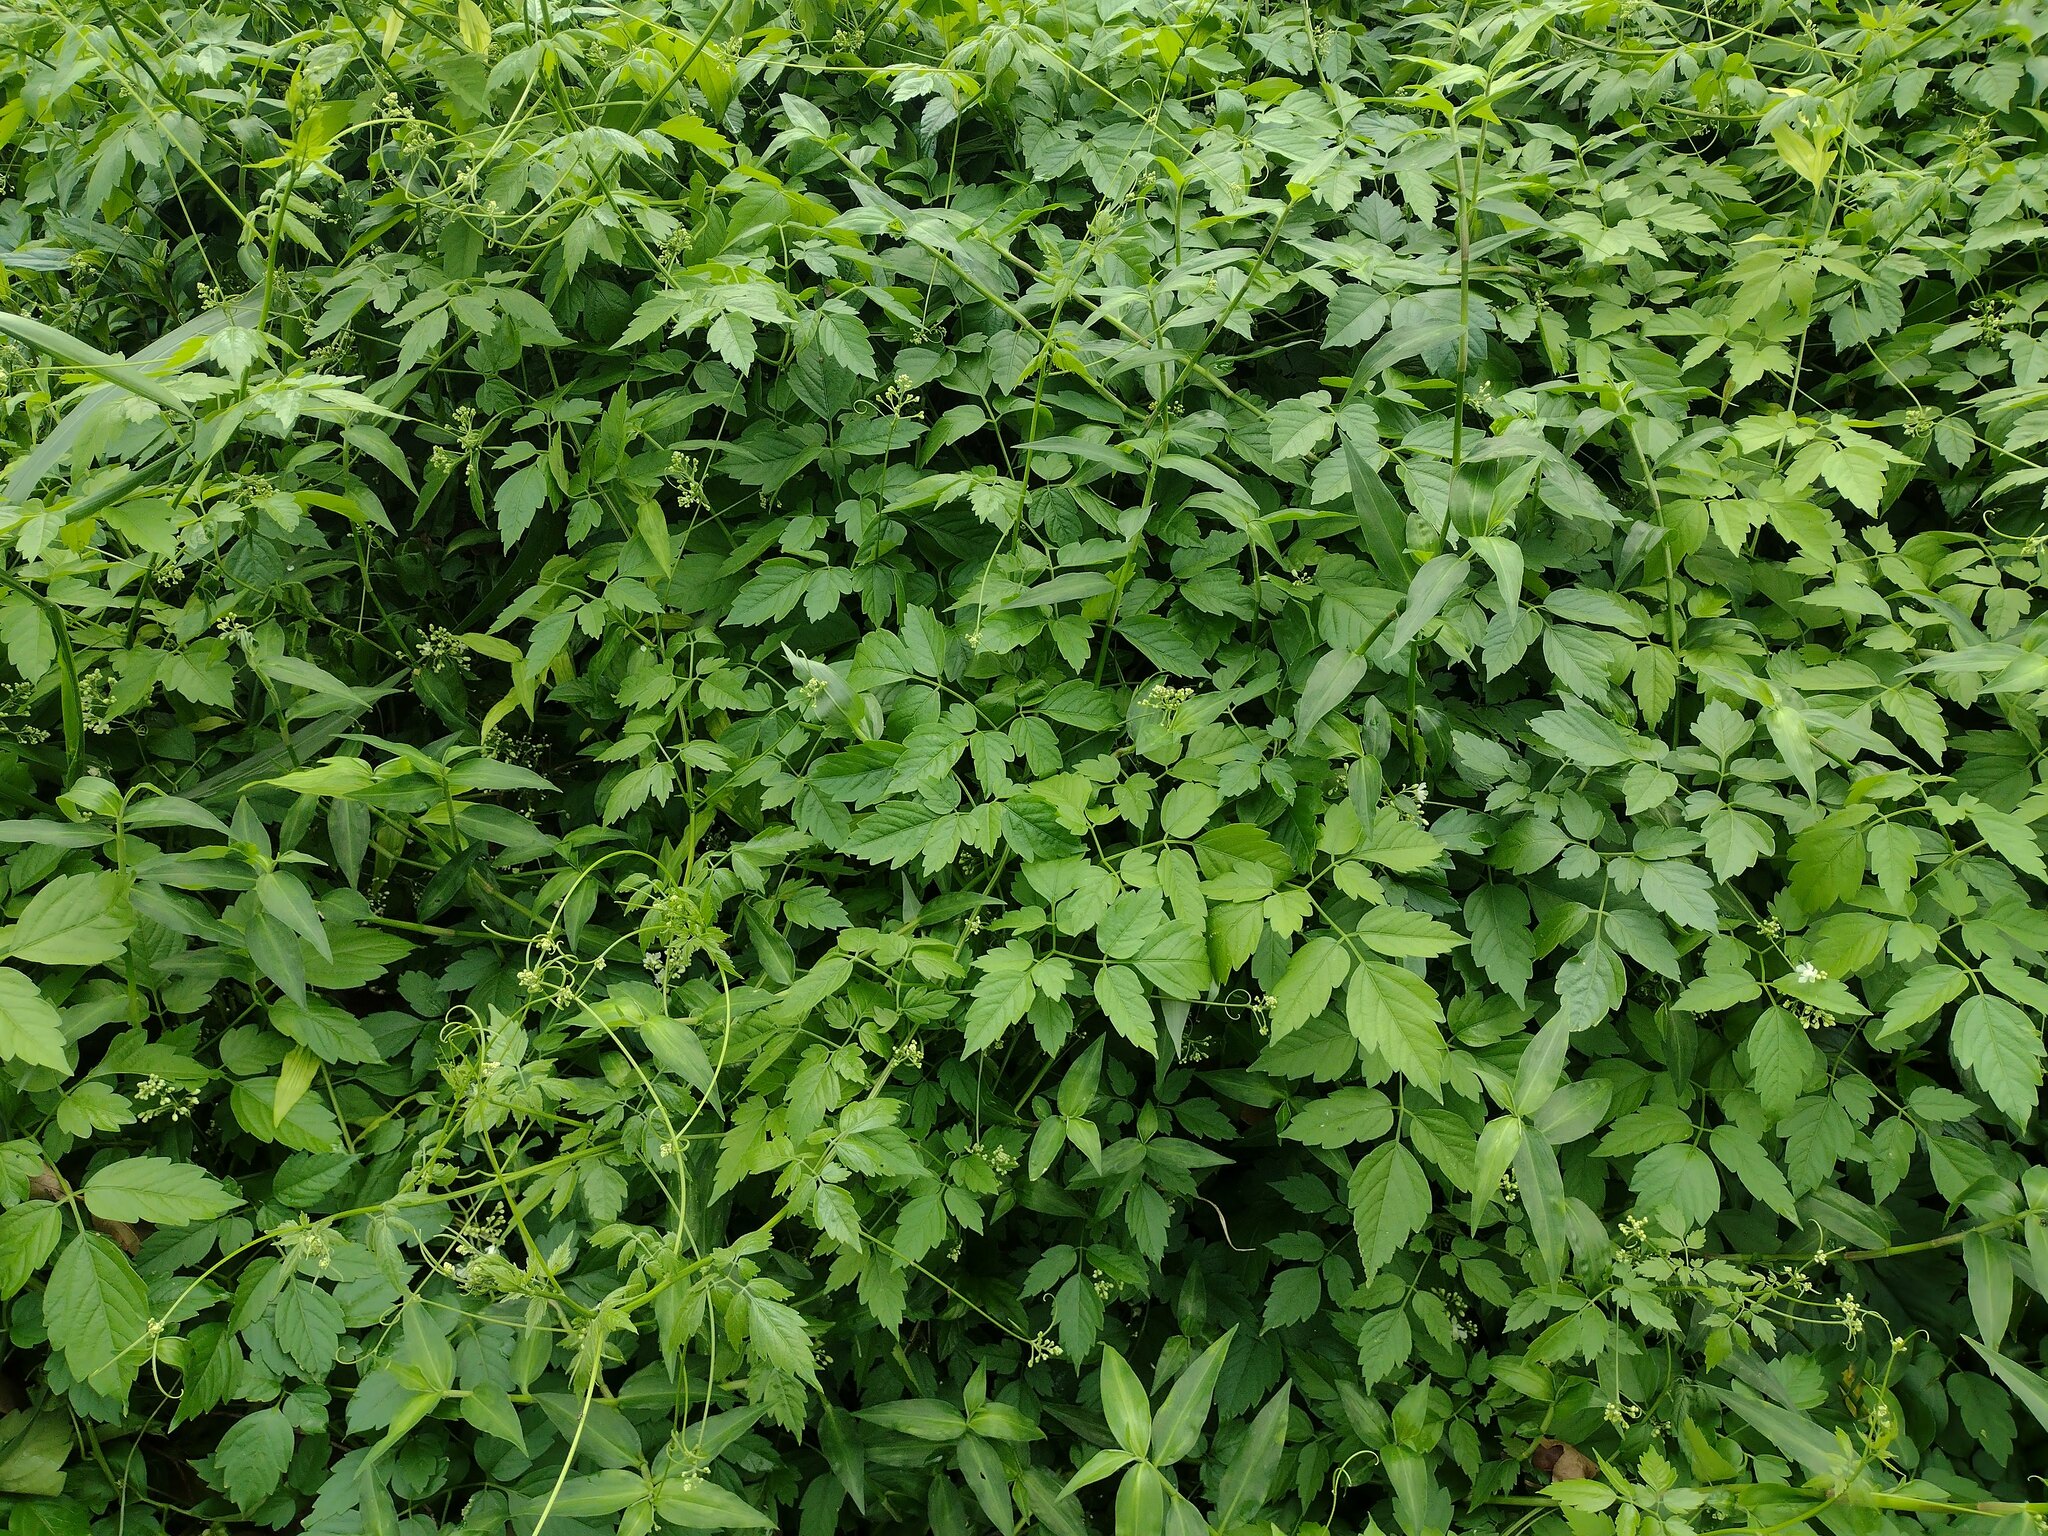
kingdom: Plantae
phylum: Tracheophyta
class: Magnoliopsida
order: Sapindales
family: Sapindaceae
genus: Cardiospermum
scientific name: Cardiospermum grandiflorum
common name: Balloon vine
